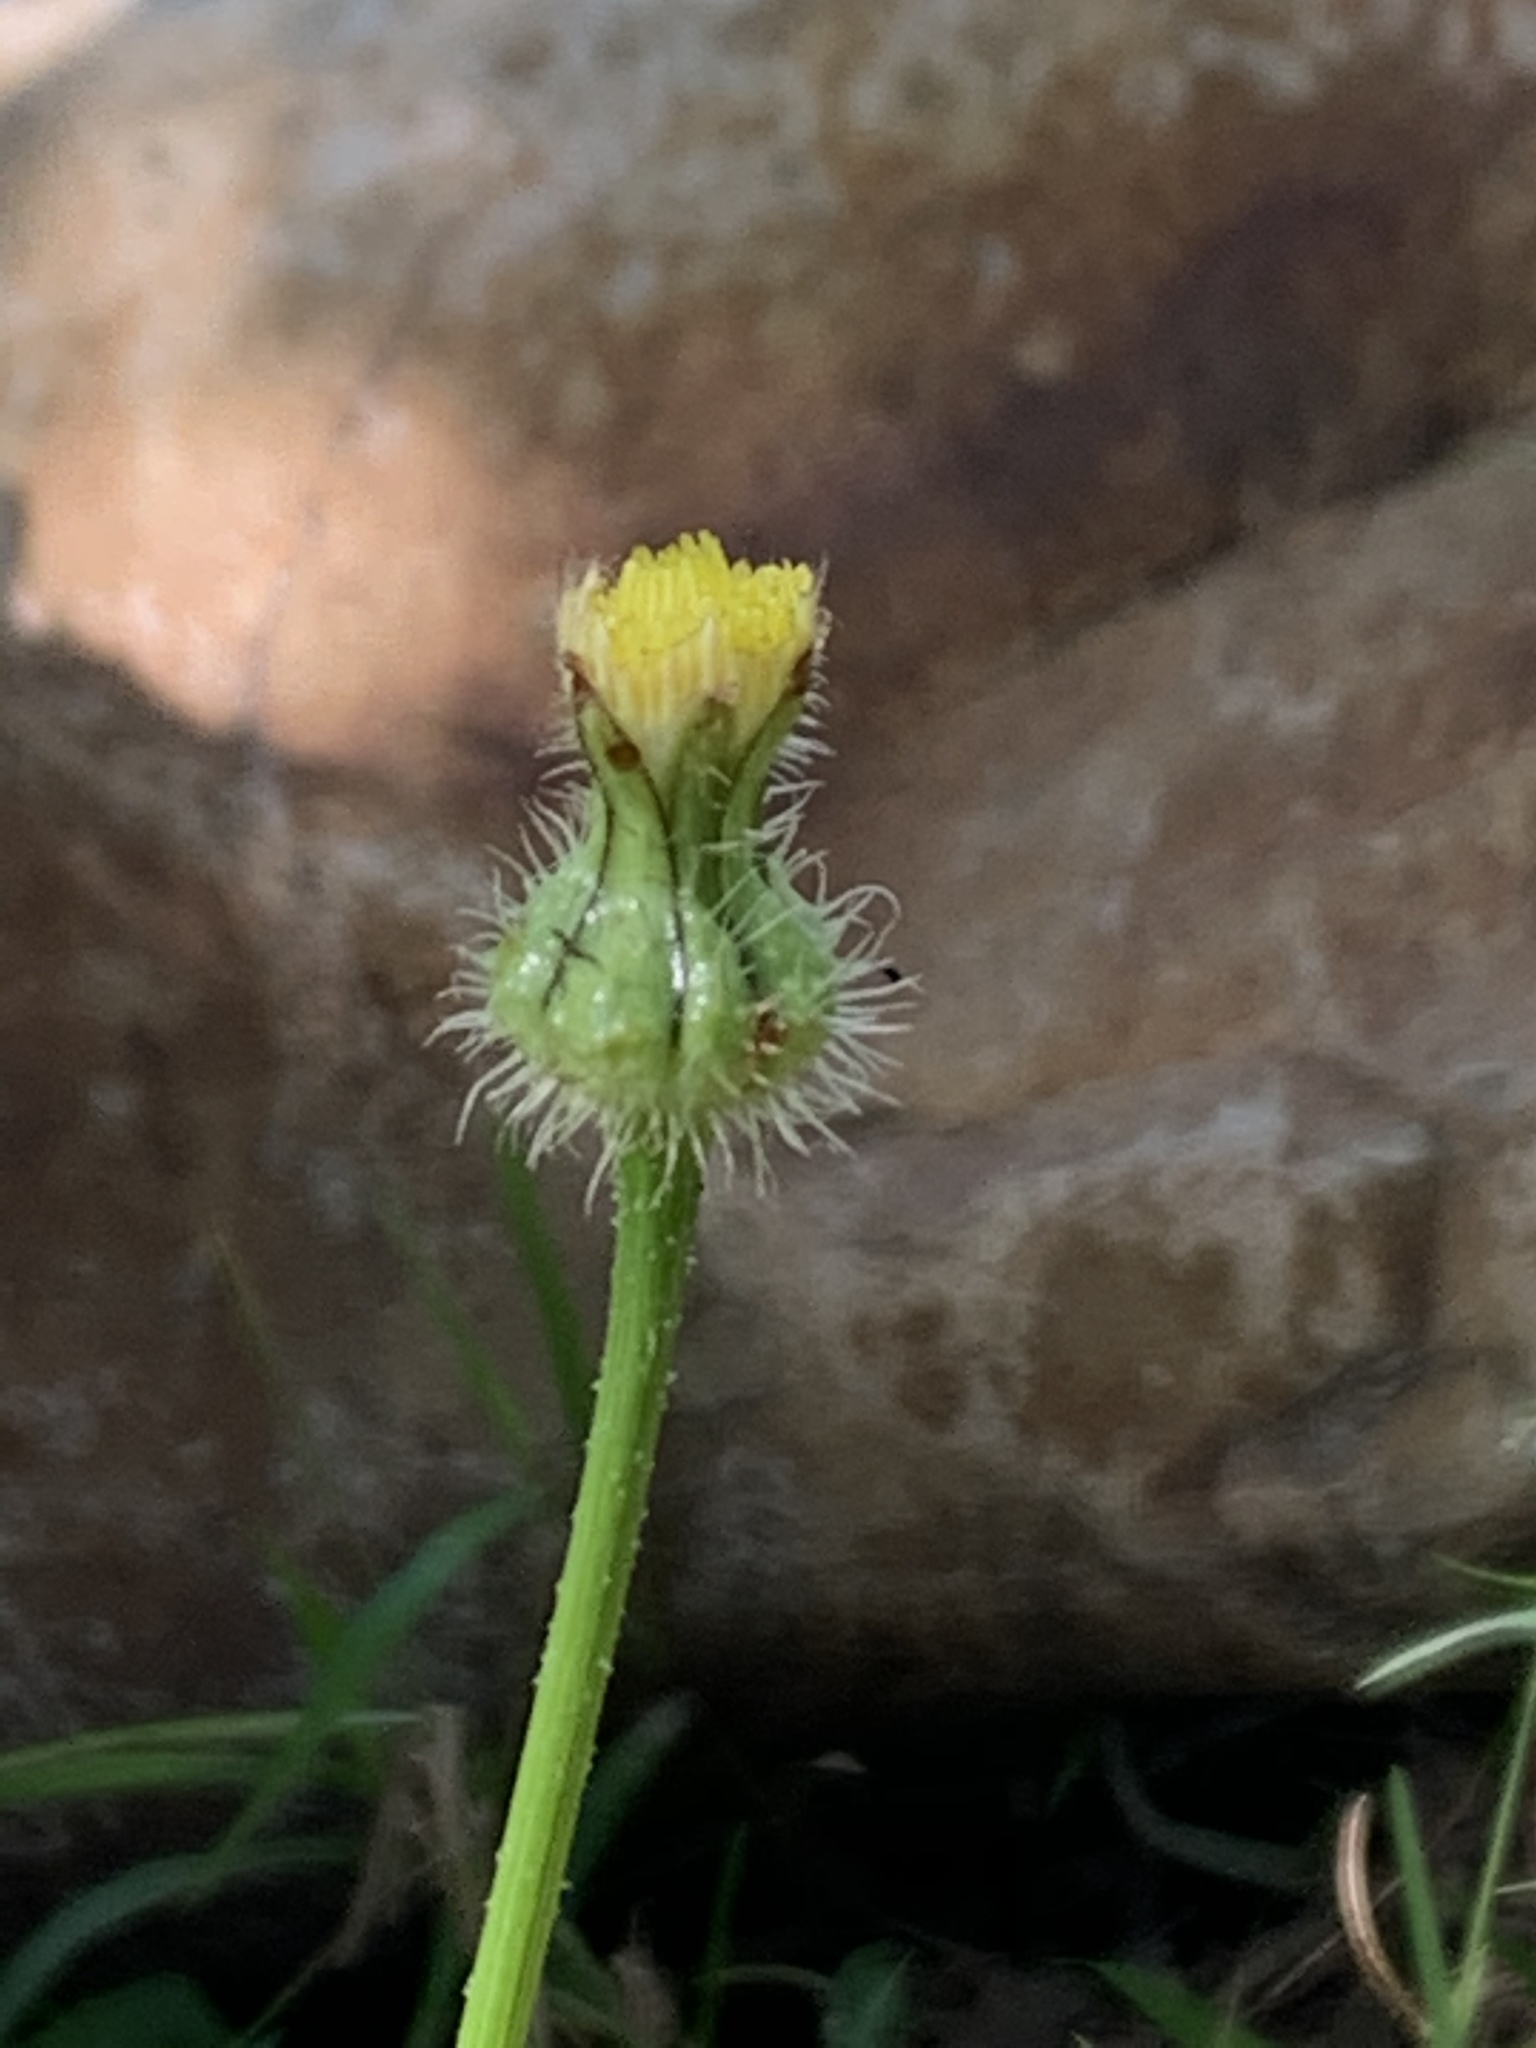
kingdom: Plantae
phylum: Tracheophyta
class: Magnoliopsida
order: Asterales
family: Asteraceae
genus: Urospermum
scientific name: Urospermum picroides
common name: False hawkbit
